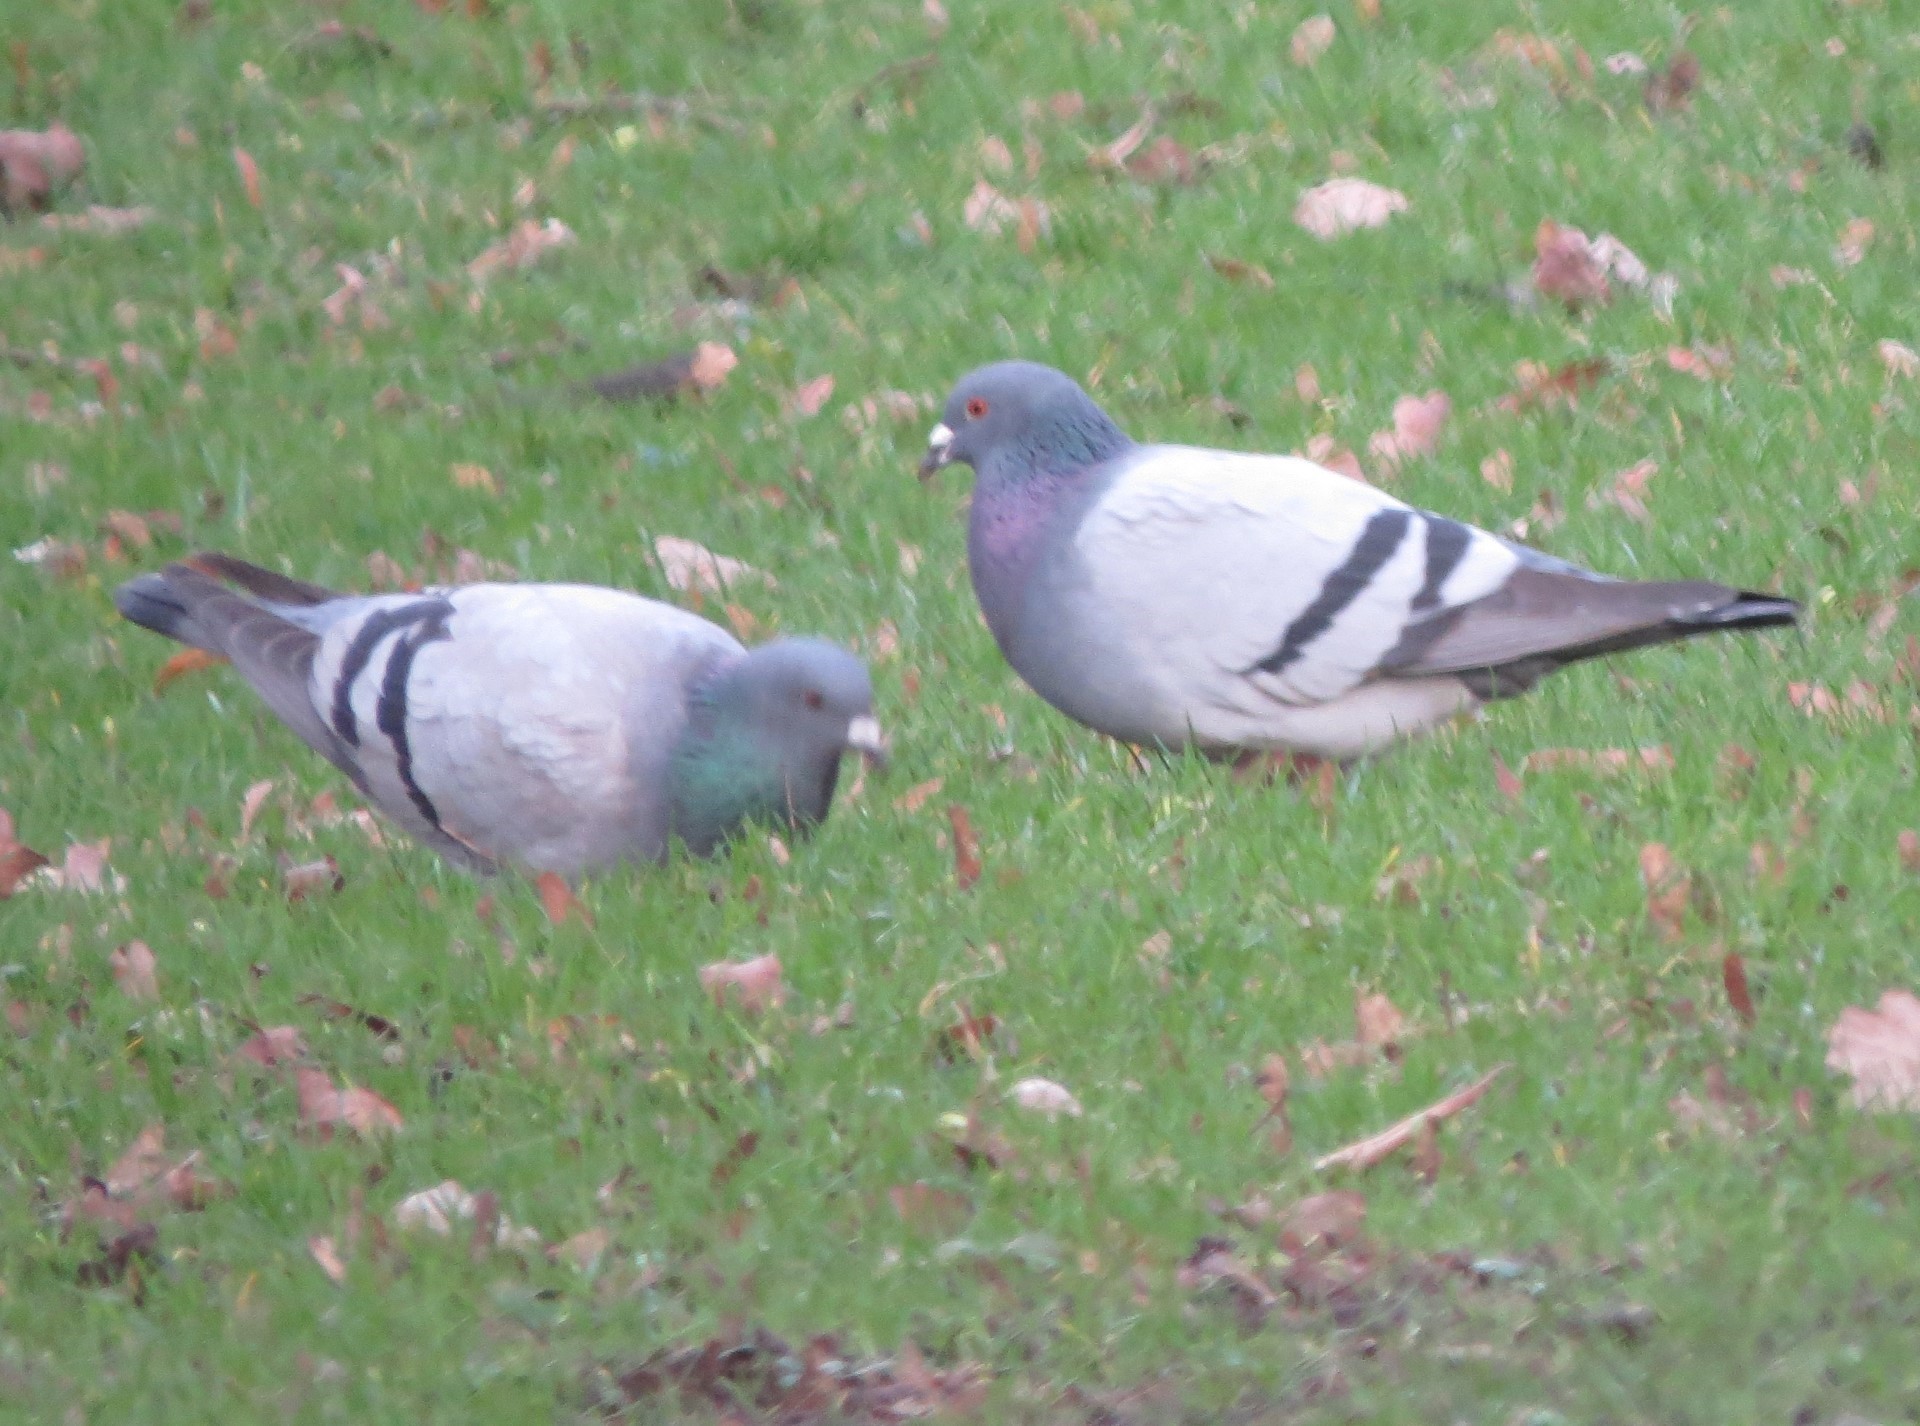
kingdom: Animalia
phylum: Chordata
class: Aves
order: Columbiformes
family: Columbidae
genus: Columba
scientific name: Columba livia
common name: Rock pigeon
